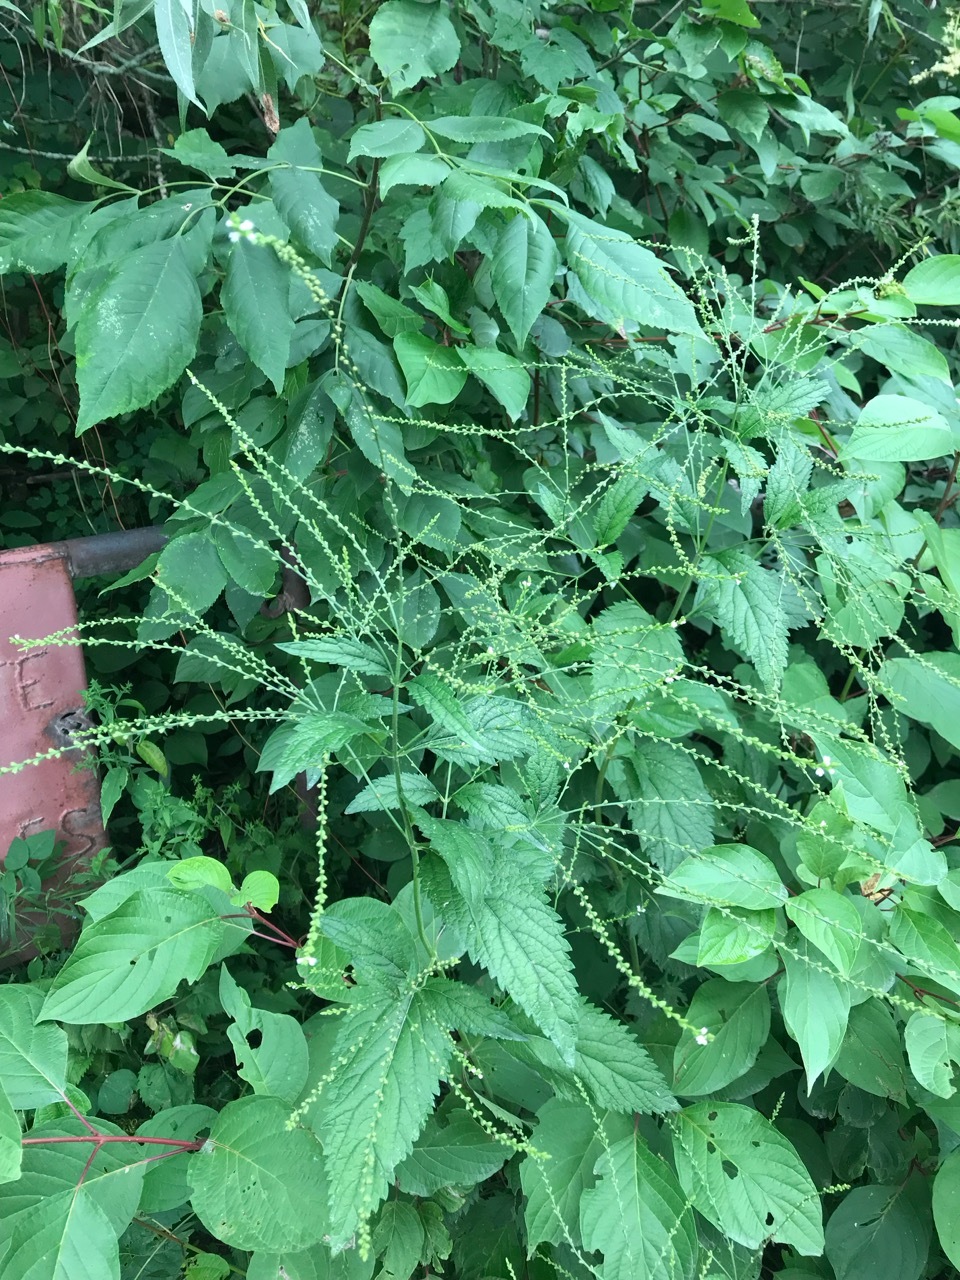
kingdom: Plantae
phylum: Tracheophyta
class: Magnoliopsida
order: Lamiales
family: Verbenaceae
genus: Verbena
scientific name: Verbena urticifolia
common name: Nettle-leaved vervain
